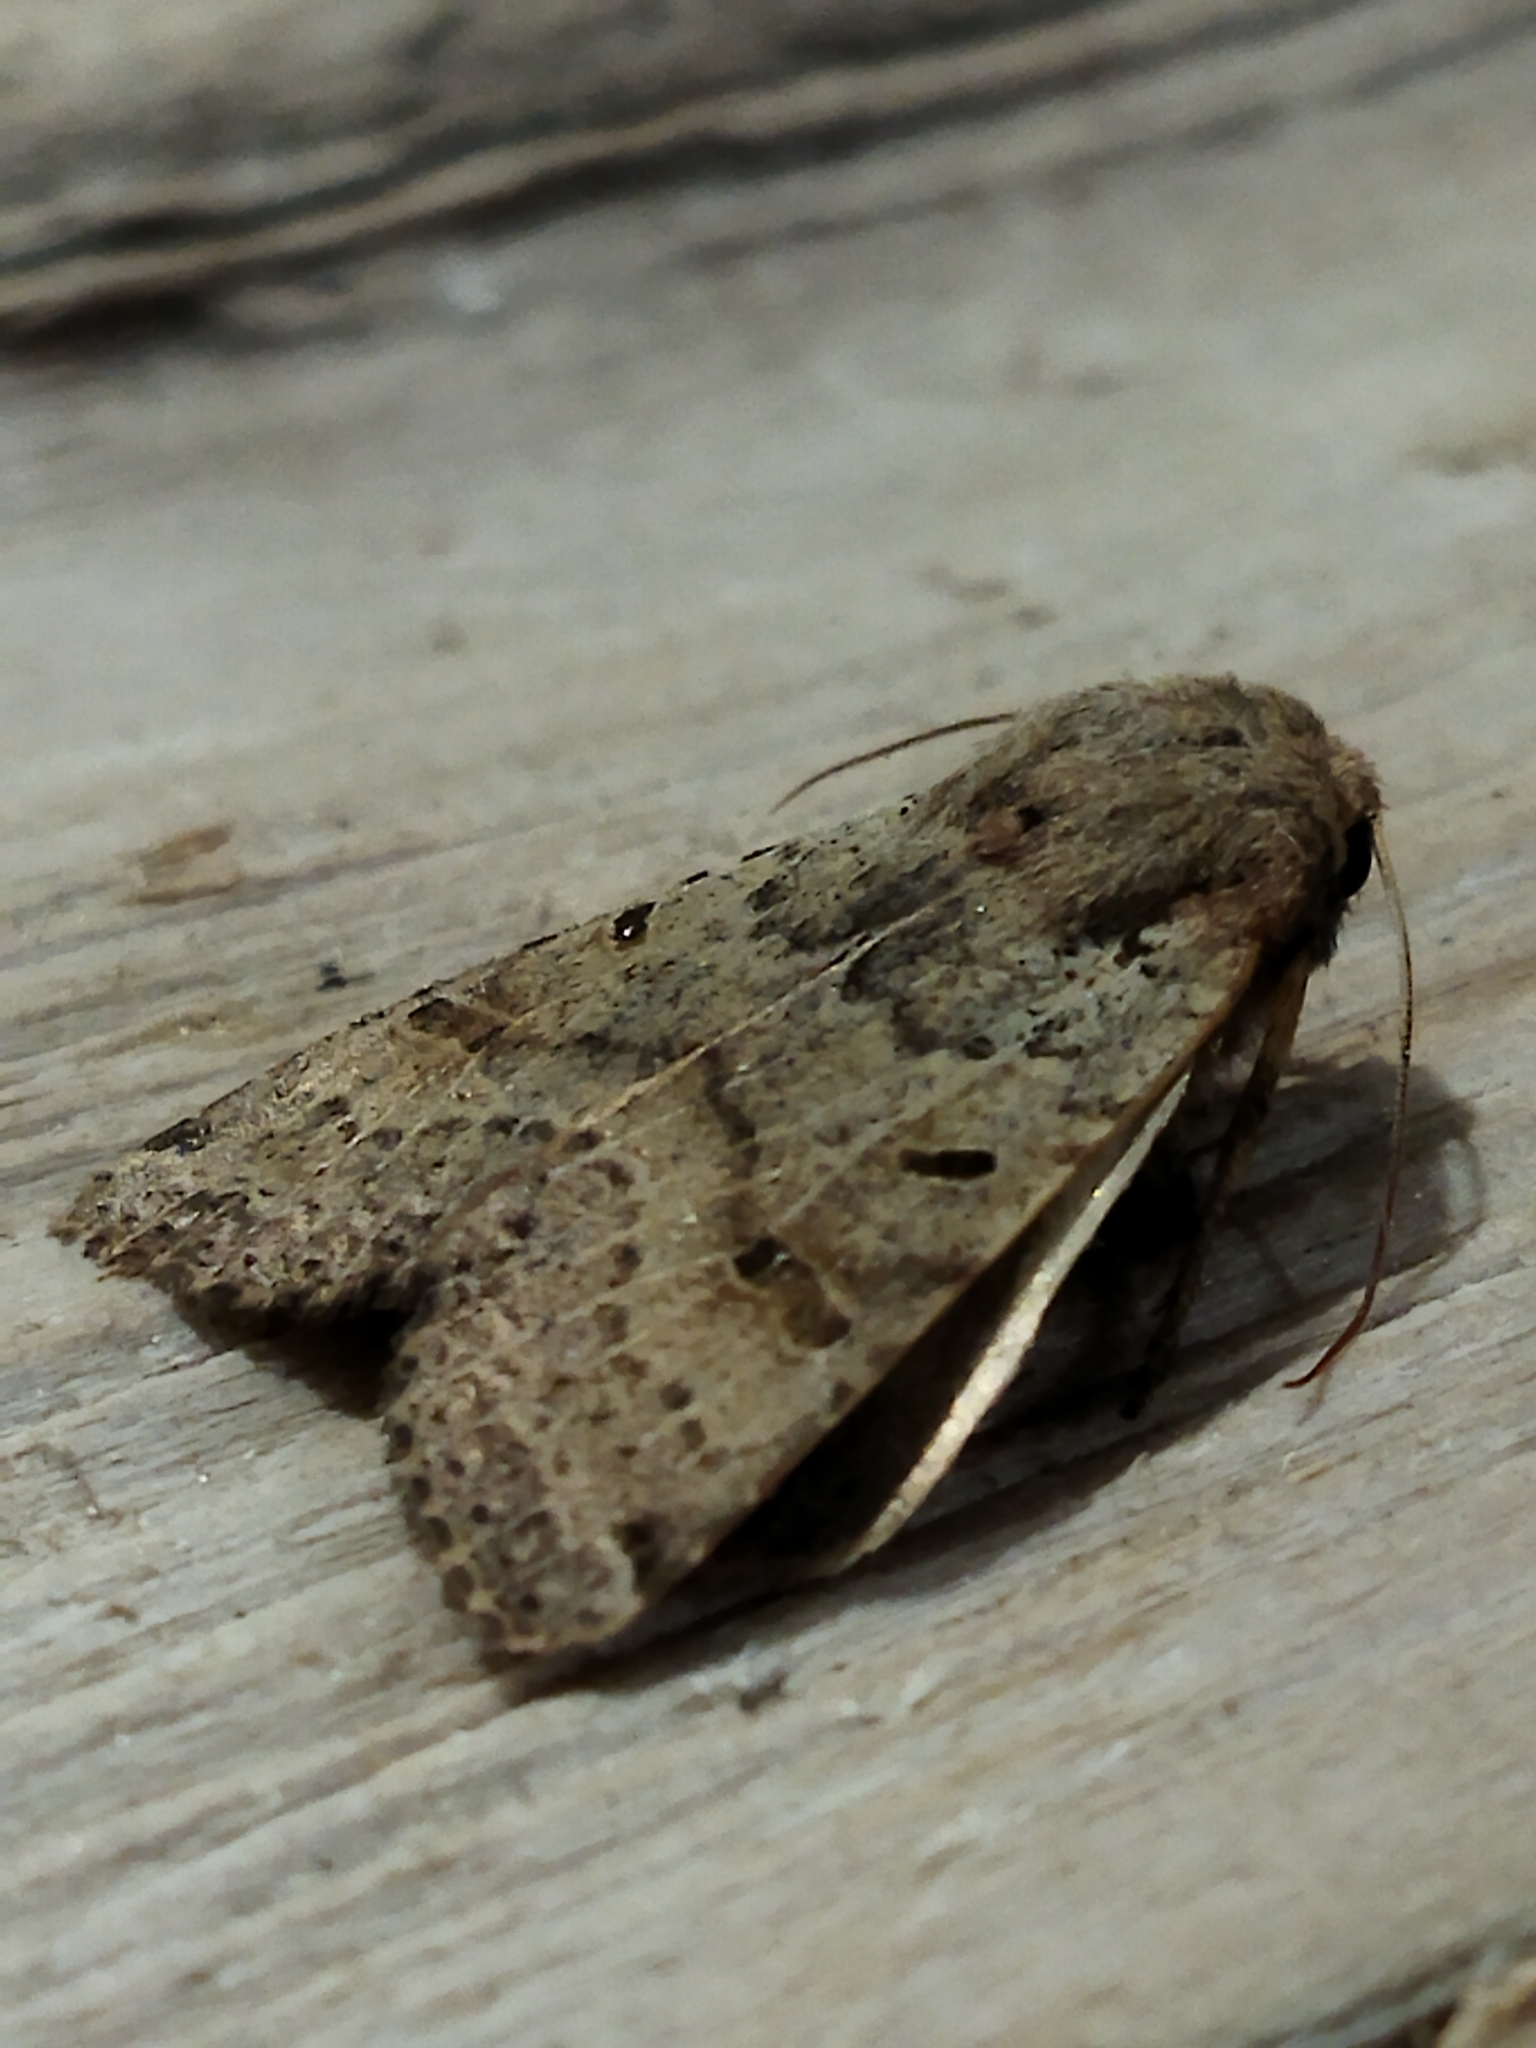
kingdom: Animalia
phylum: Arthropoda
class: Insecta
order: Lepidoptera
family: Noctuidae
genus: Agrochola
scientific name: Agrochola lychnidis
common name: Beaded chestnut
